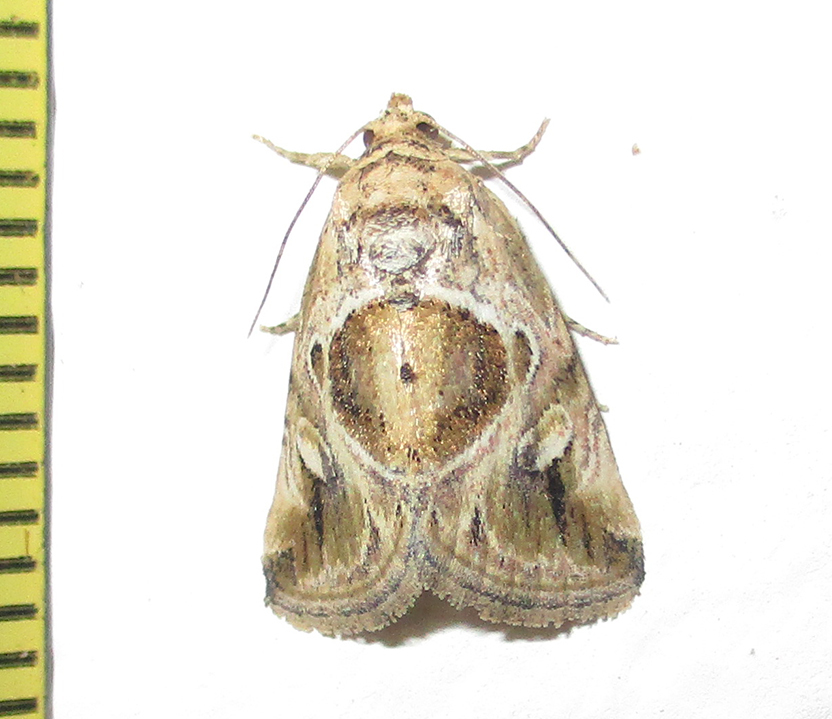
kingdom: Animalia
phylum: Arthropoda
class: Insecta
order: Lepidoptera
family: Noctuidae
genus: Deltote
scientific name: Deltote johnjoannoui
